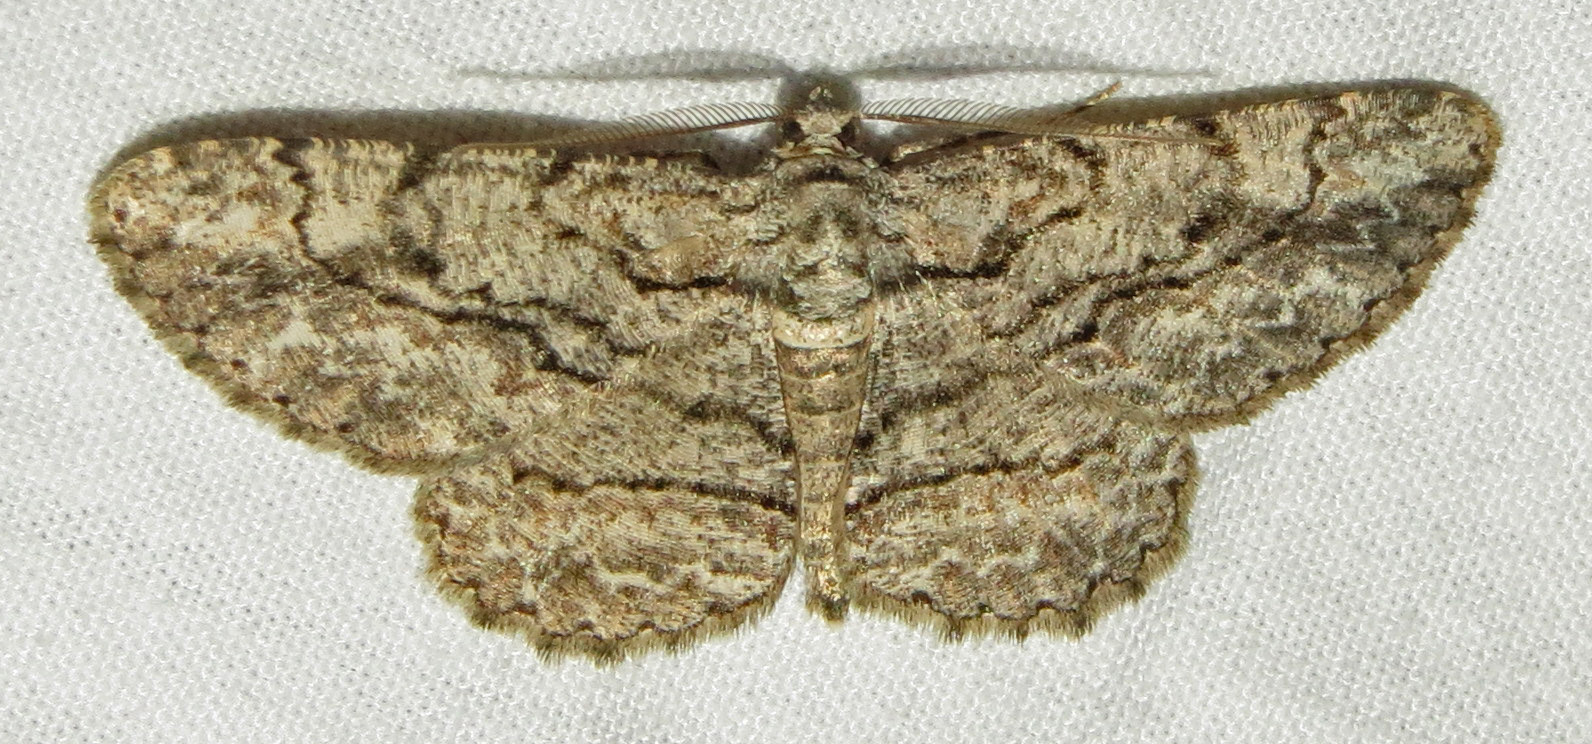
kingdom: Animalia
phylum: Arthropoda
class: Insecta
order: Lepidoptera
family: Geometridae
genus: Anavitrinella
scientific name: Anavitrinella pampinaria
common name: Common gray
